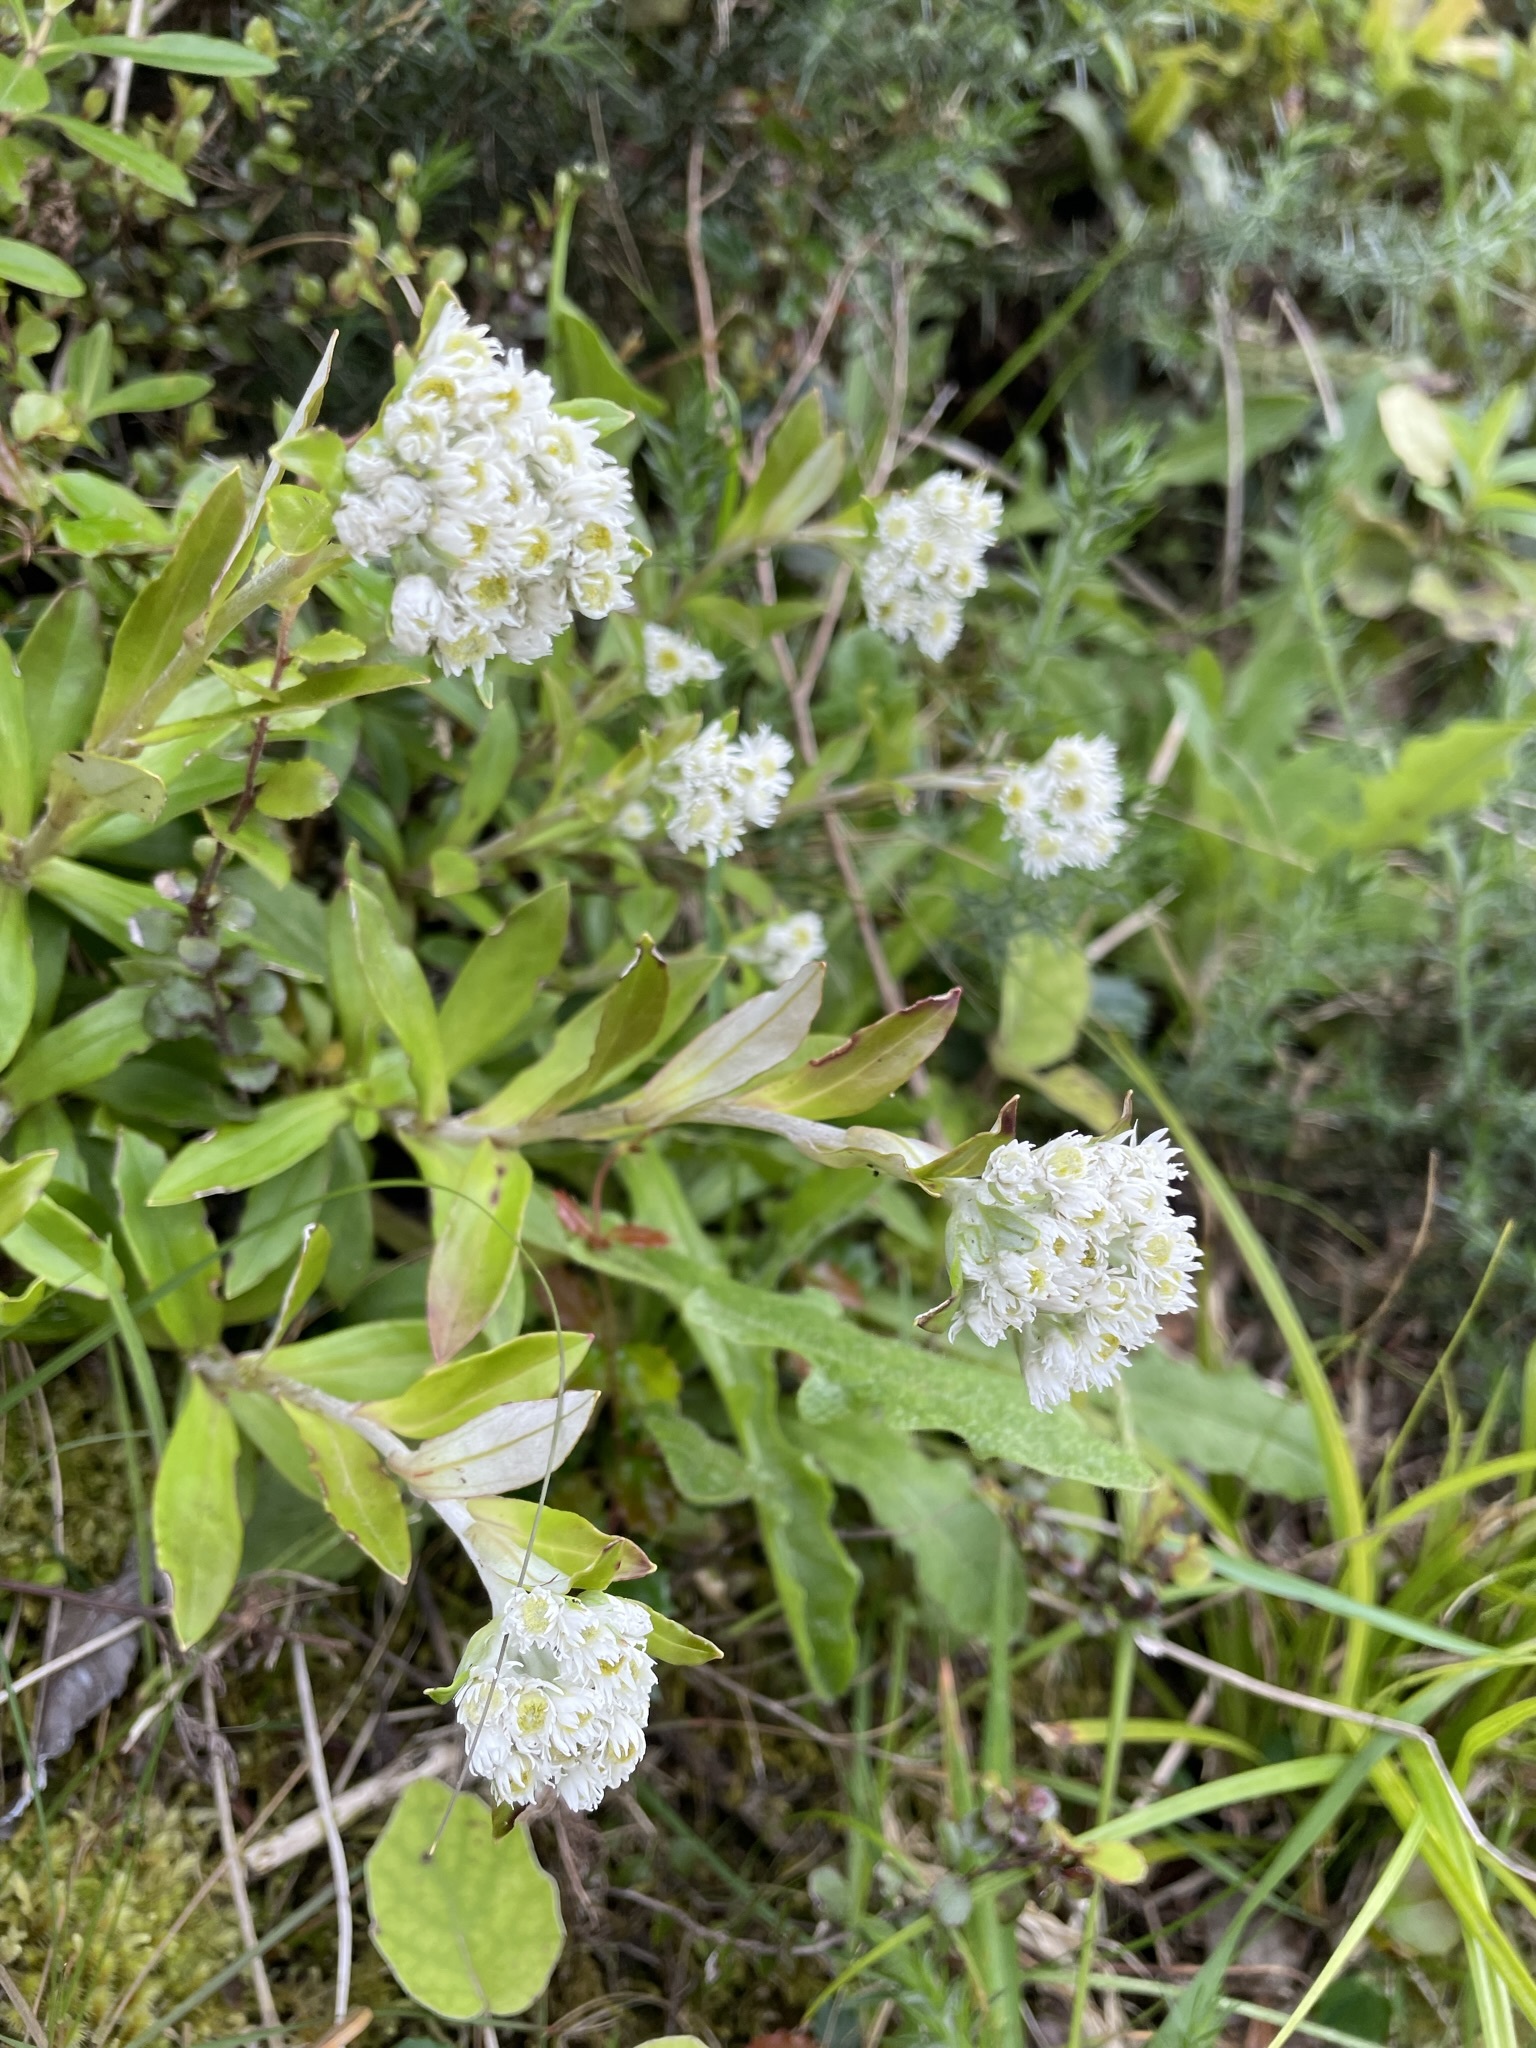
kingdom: Plantae
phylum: Tracheophyta
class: Magnoliopsida
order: Asterales
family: Asteraceae
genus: Anaphalioides
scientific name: Anaphalioides trinervis
